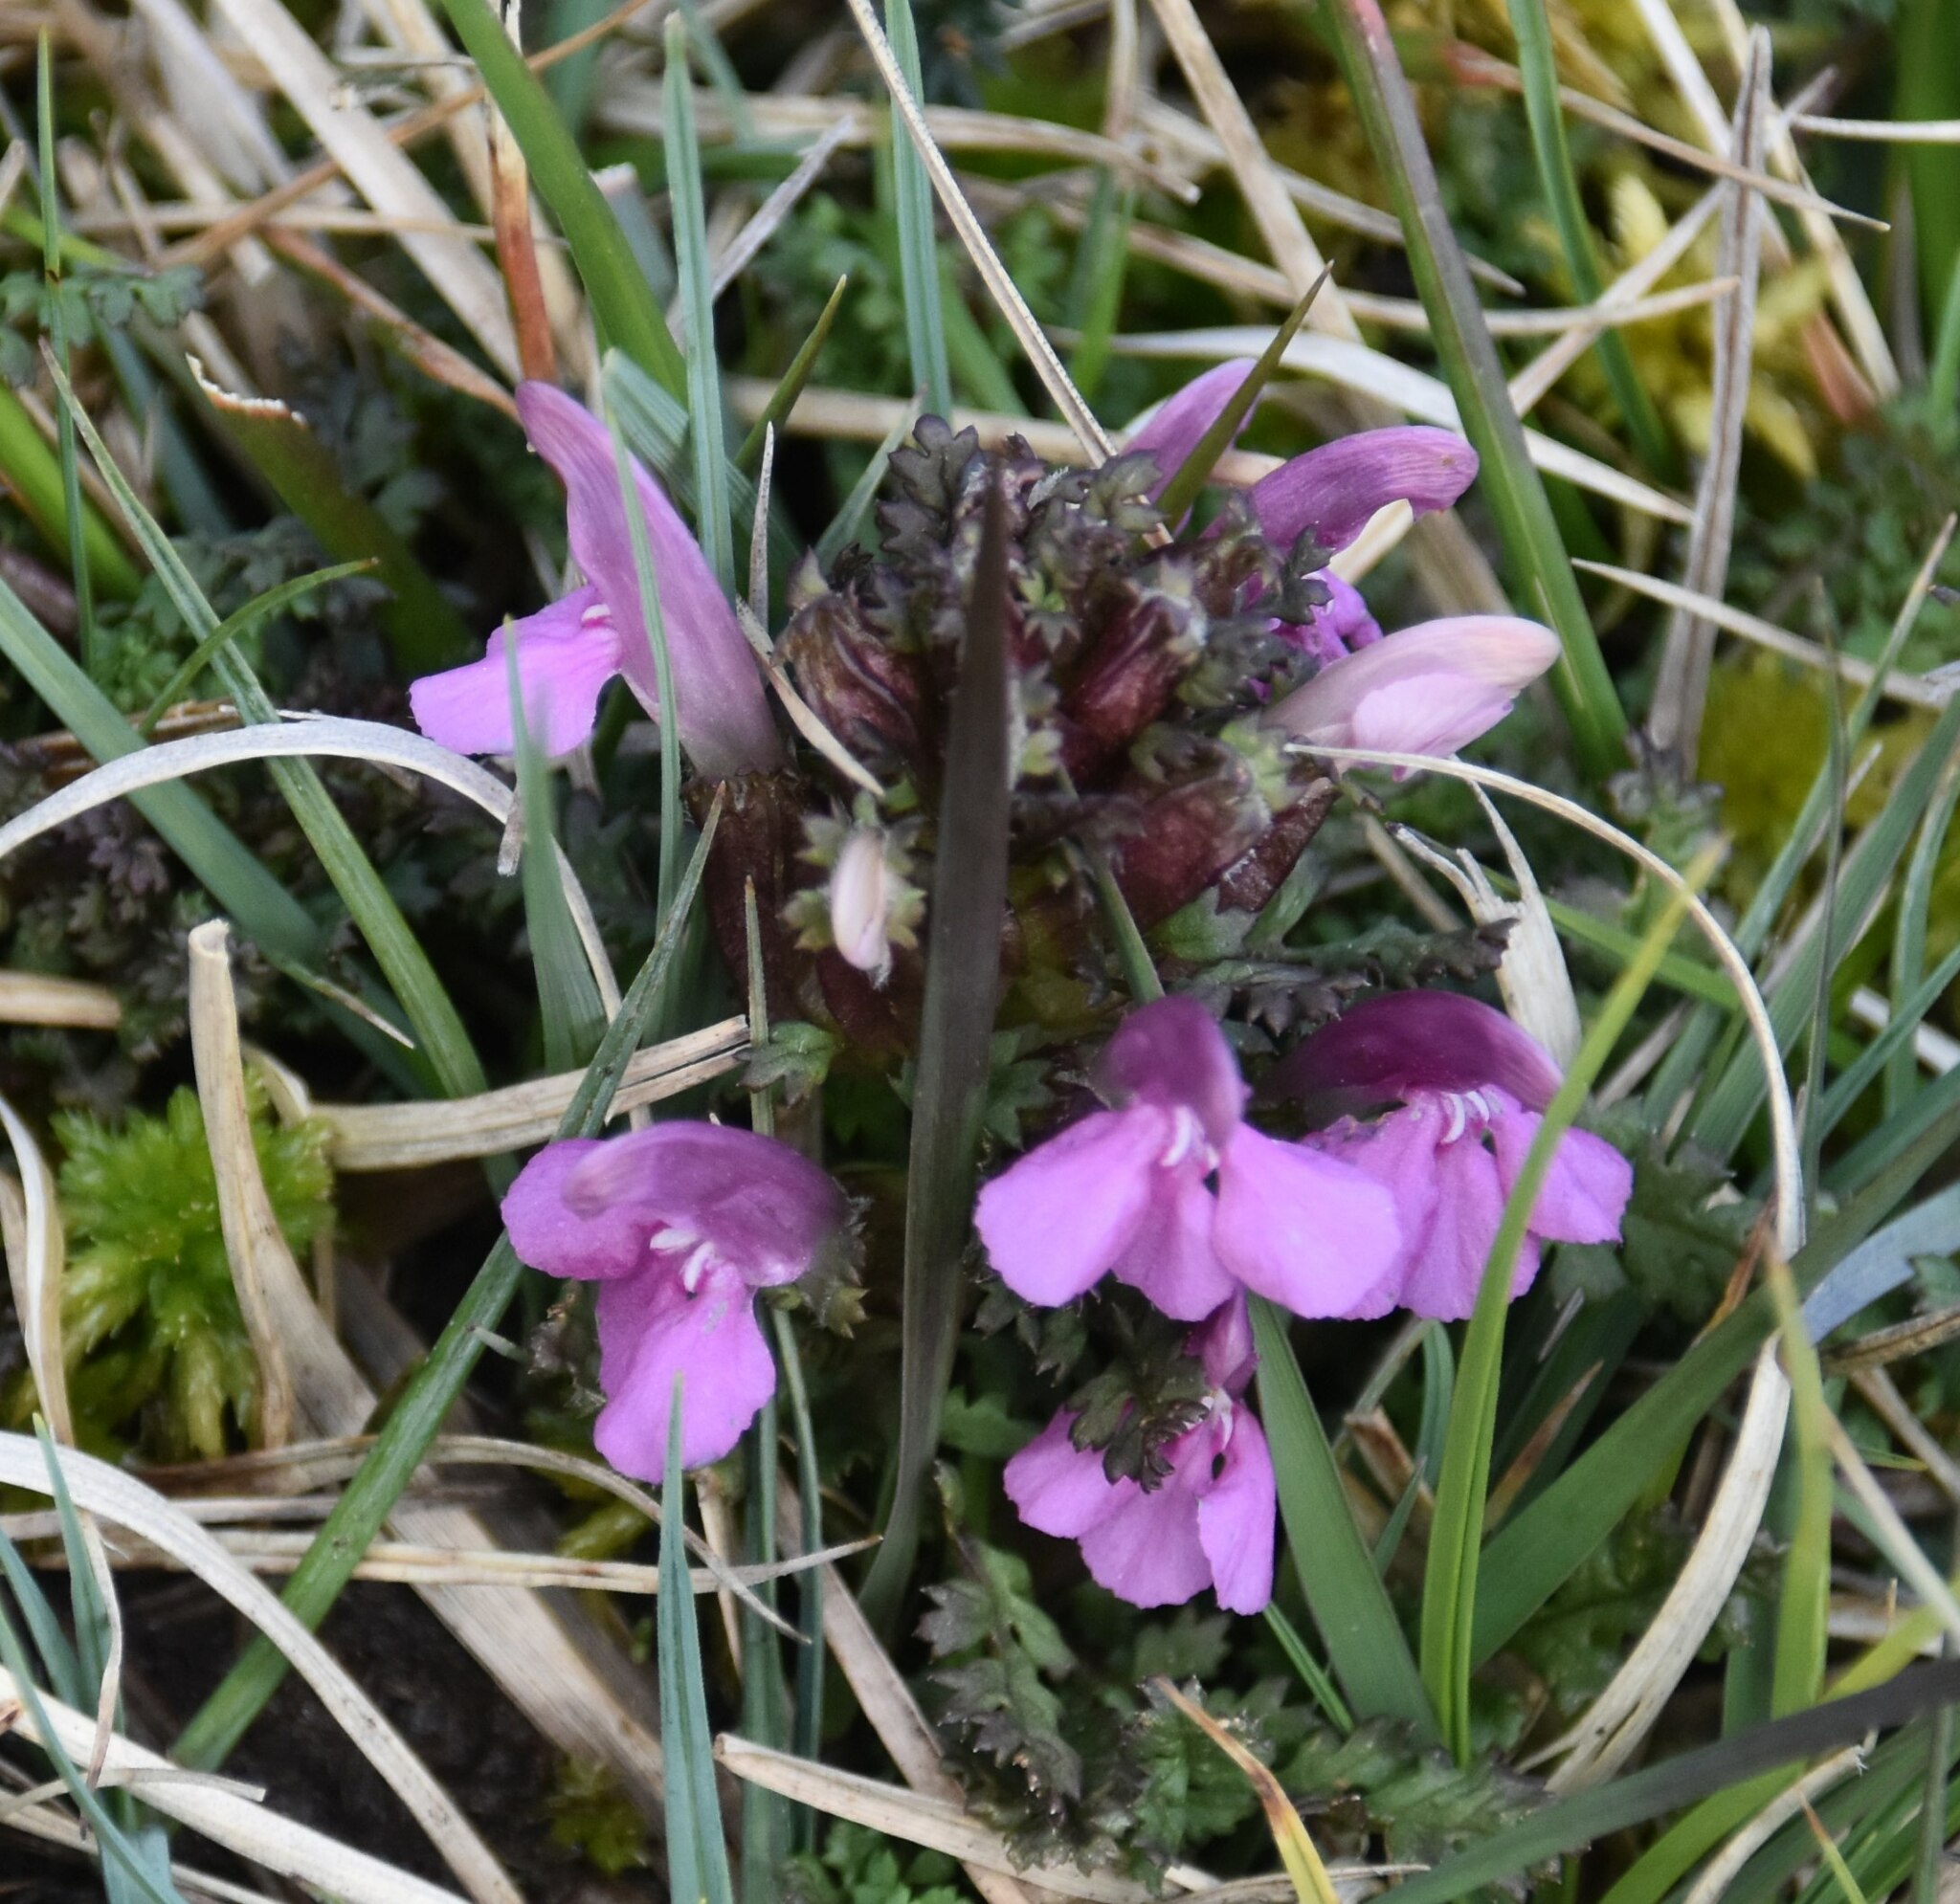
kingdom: Plantae
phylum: Tracheophyta
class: Magnoliopsida
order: Lamiales
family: Orobanchaceae
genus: Pedicularis
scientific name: Pedicularis sylvatica
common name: Lousewort
